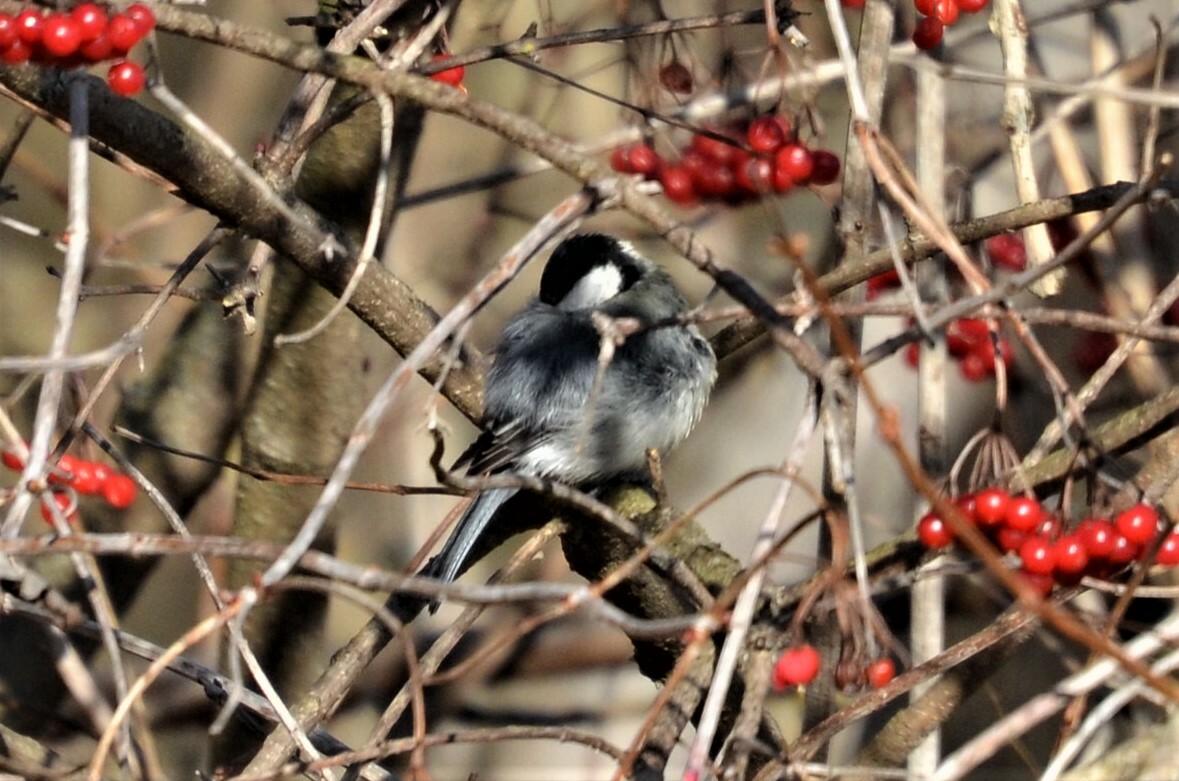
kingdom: Animalia
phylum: Chordata
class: Aves
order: Passeriformes
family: Paridae
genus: Periparus
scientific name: Periparus ater
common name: Coal tit
